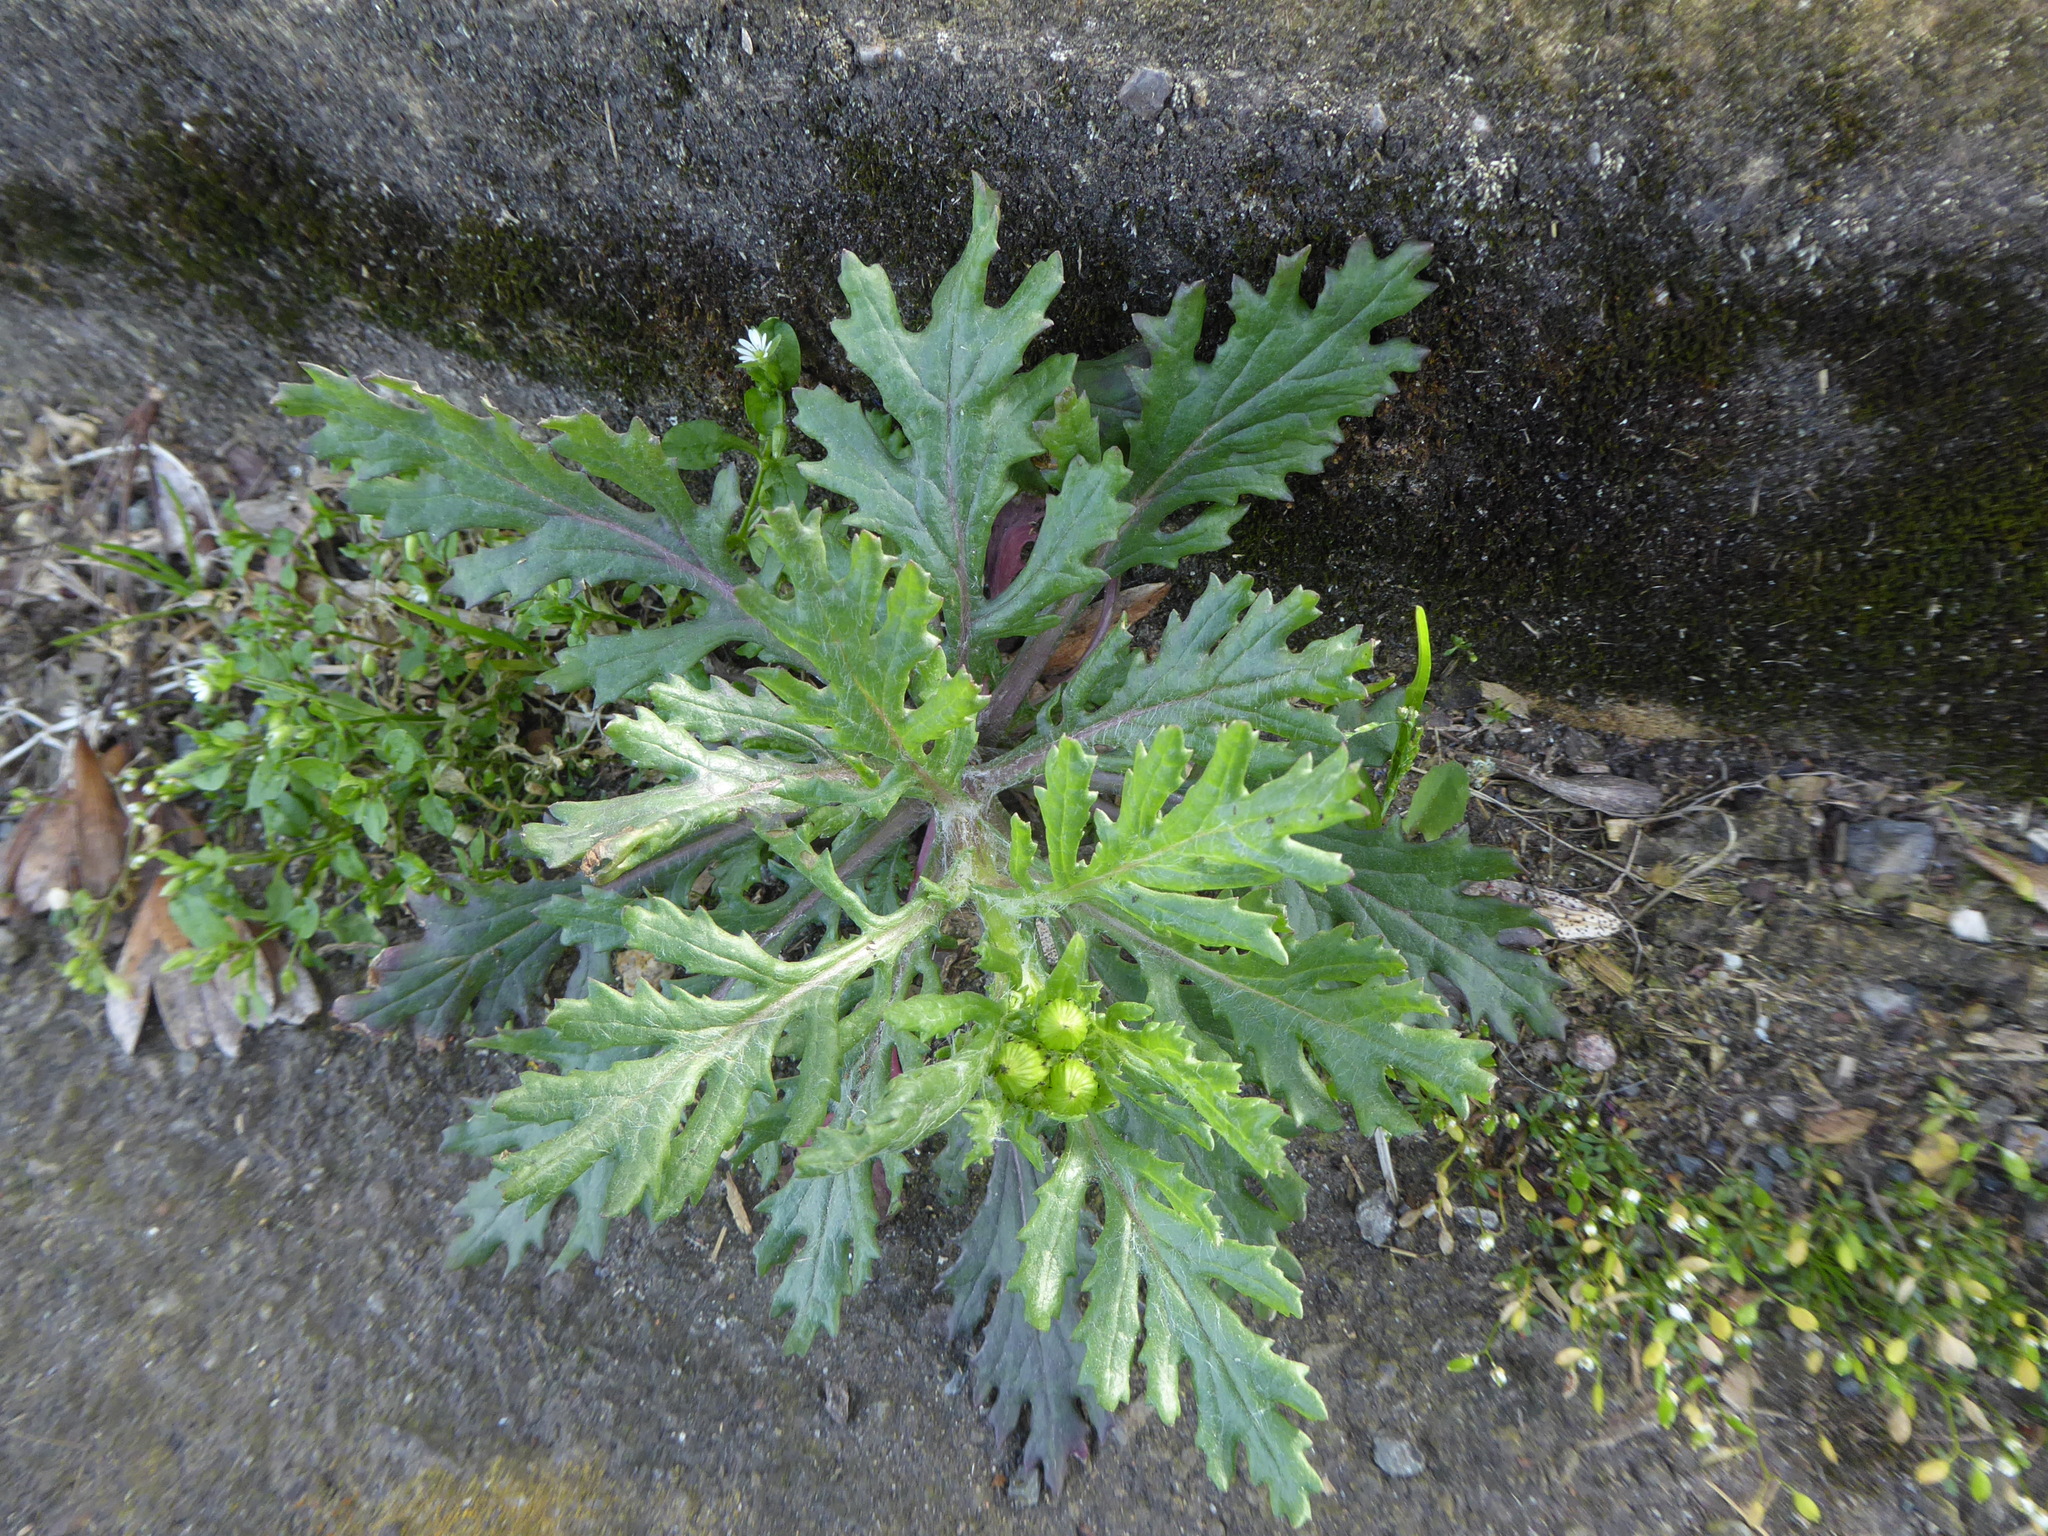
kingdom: Plantae
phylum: Tracheophyta
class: Magnoliopsida
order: Asterales
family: Asteraceae
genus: Senecio
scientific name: Senecio squalidus
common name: Oxford ragwort
